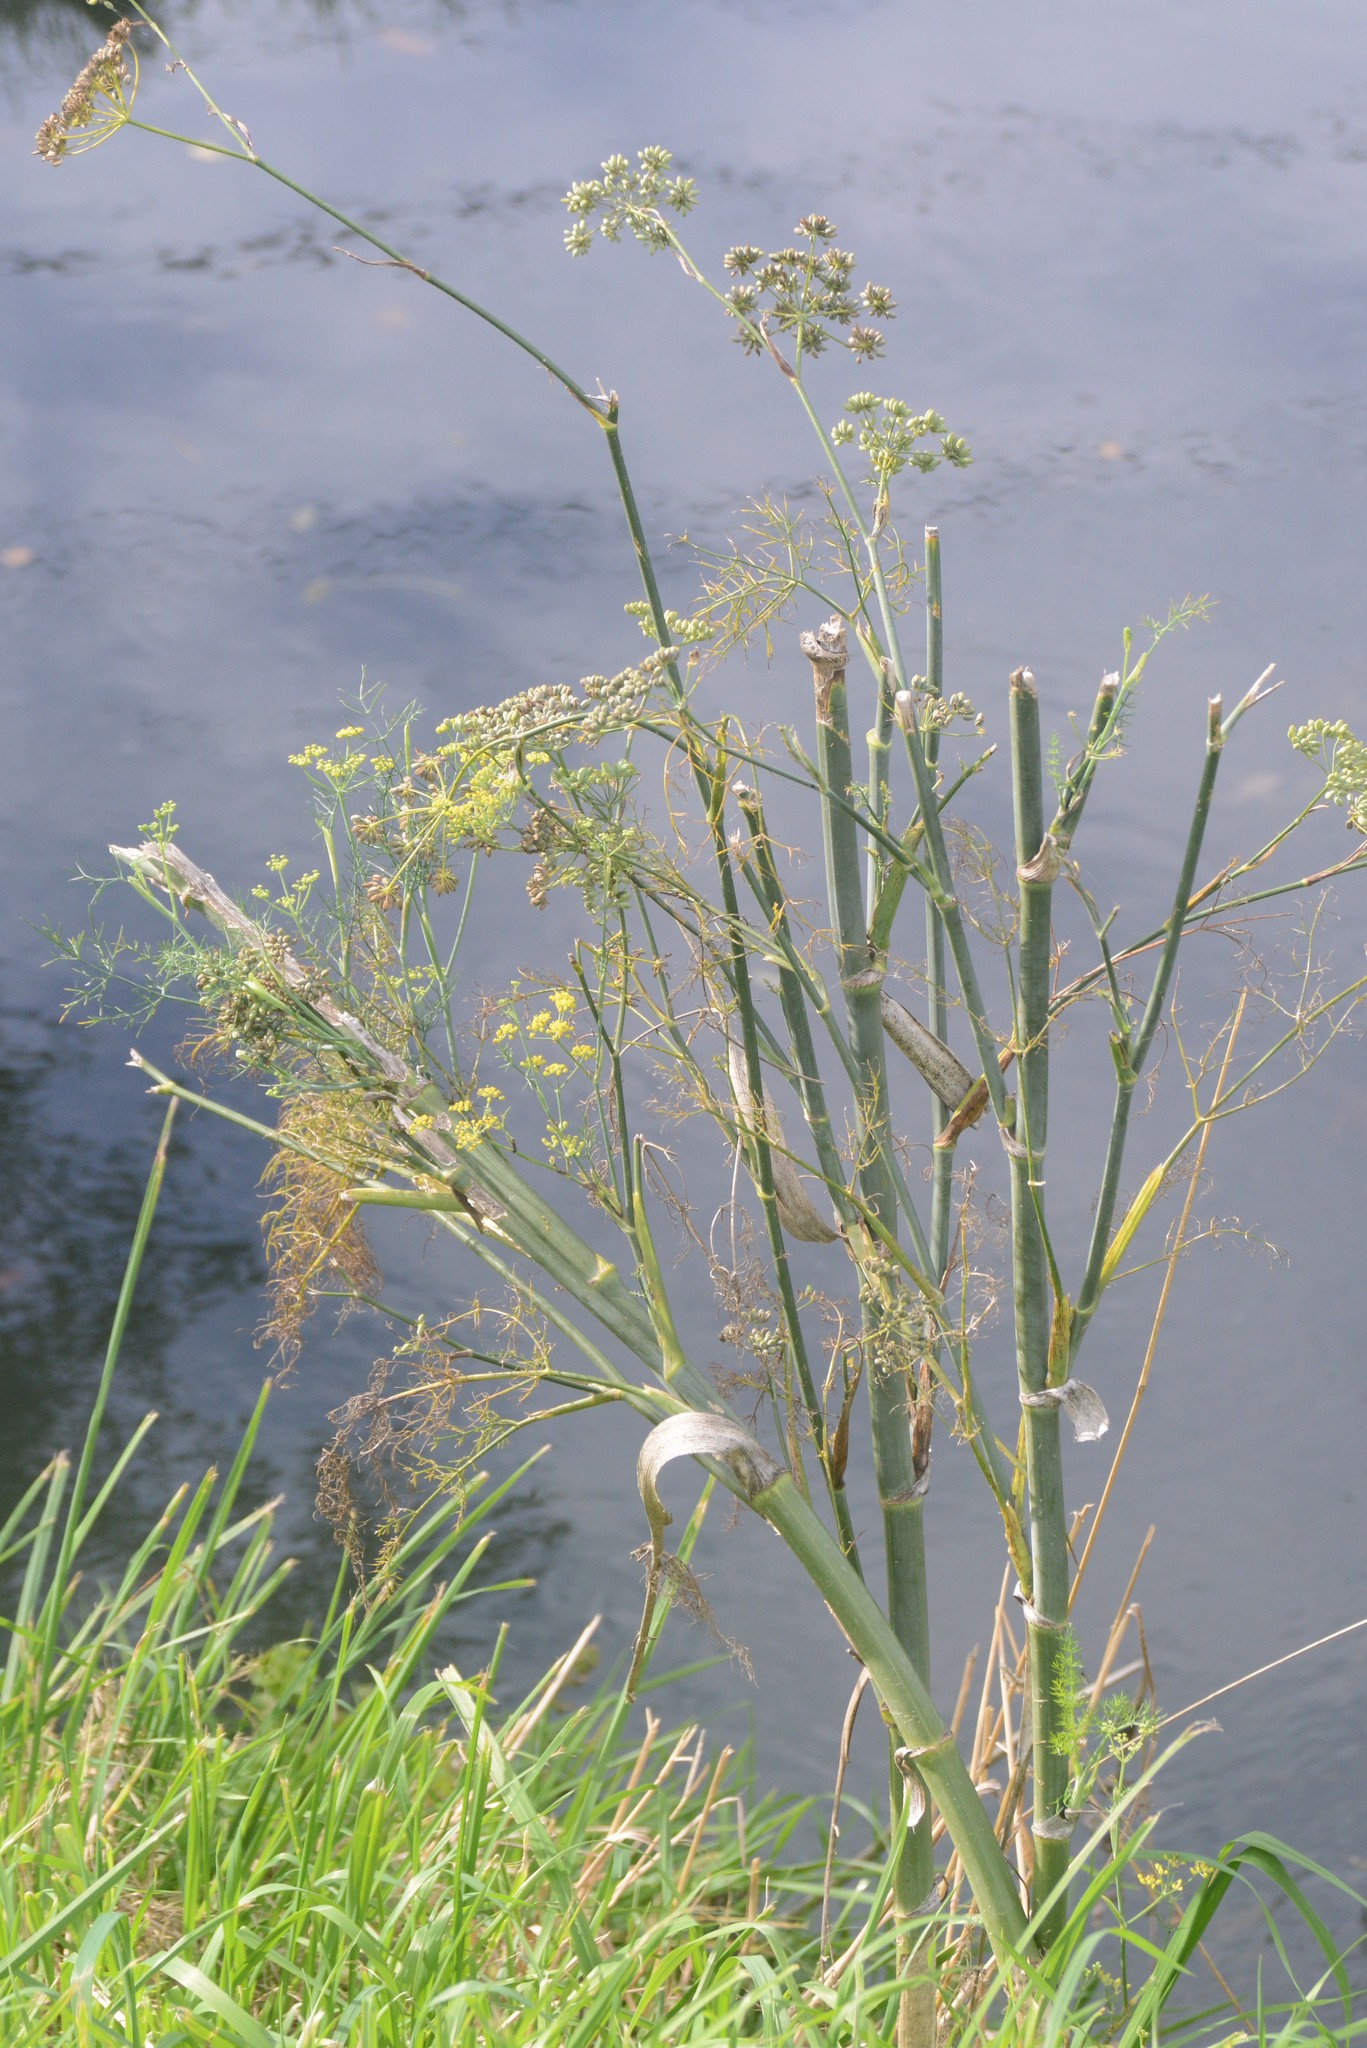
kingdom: Plantae
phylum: Tracheophyta
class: Magnoliopsida
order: Apiales
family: Apiaceae
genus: Foeniculum
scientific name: Foeniculum vulgare
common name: Fennel
